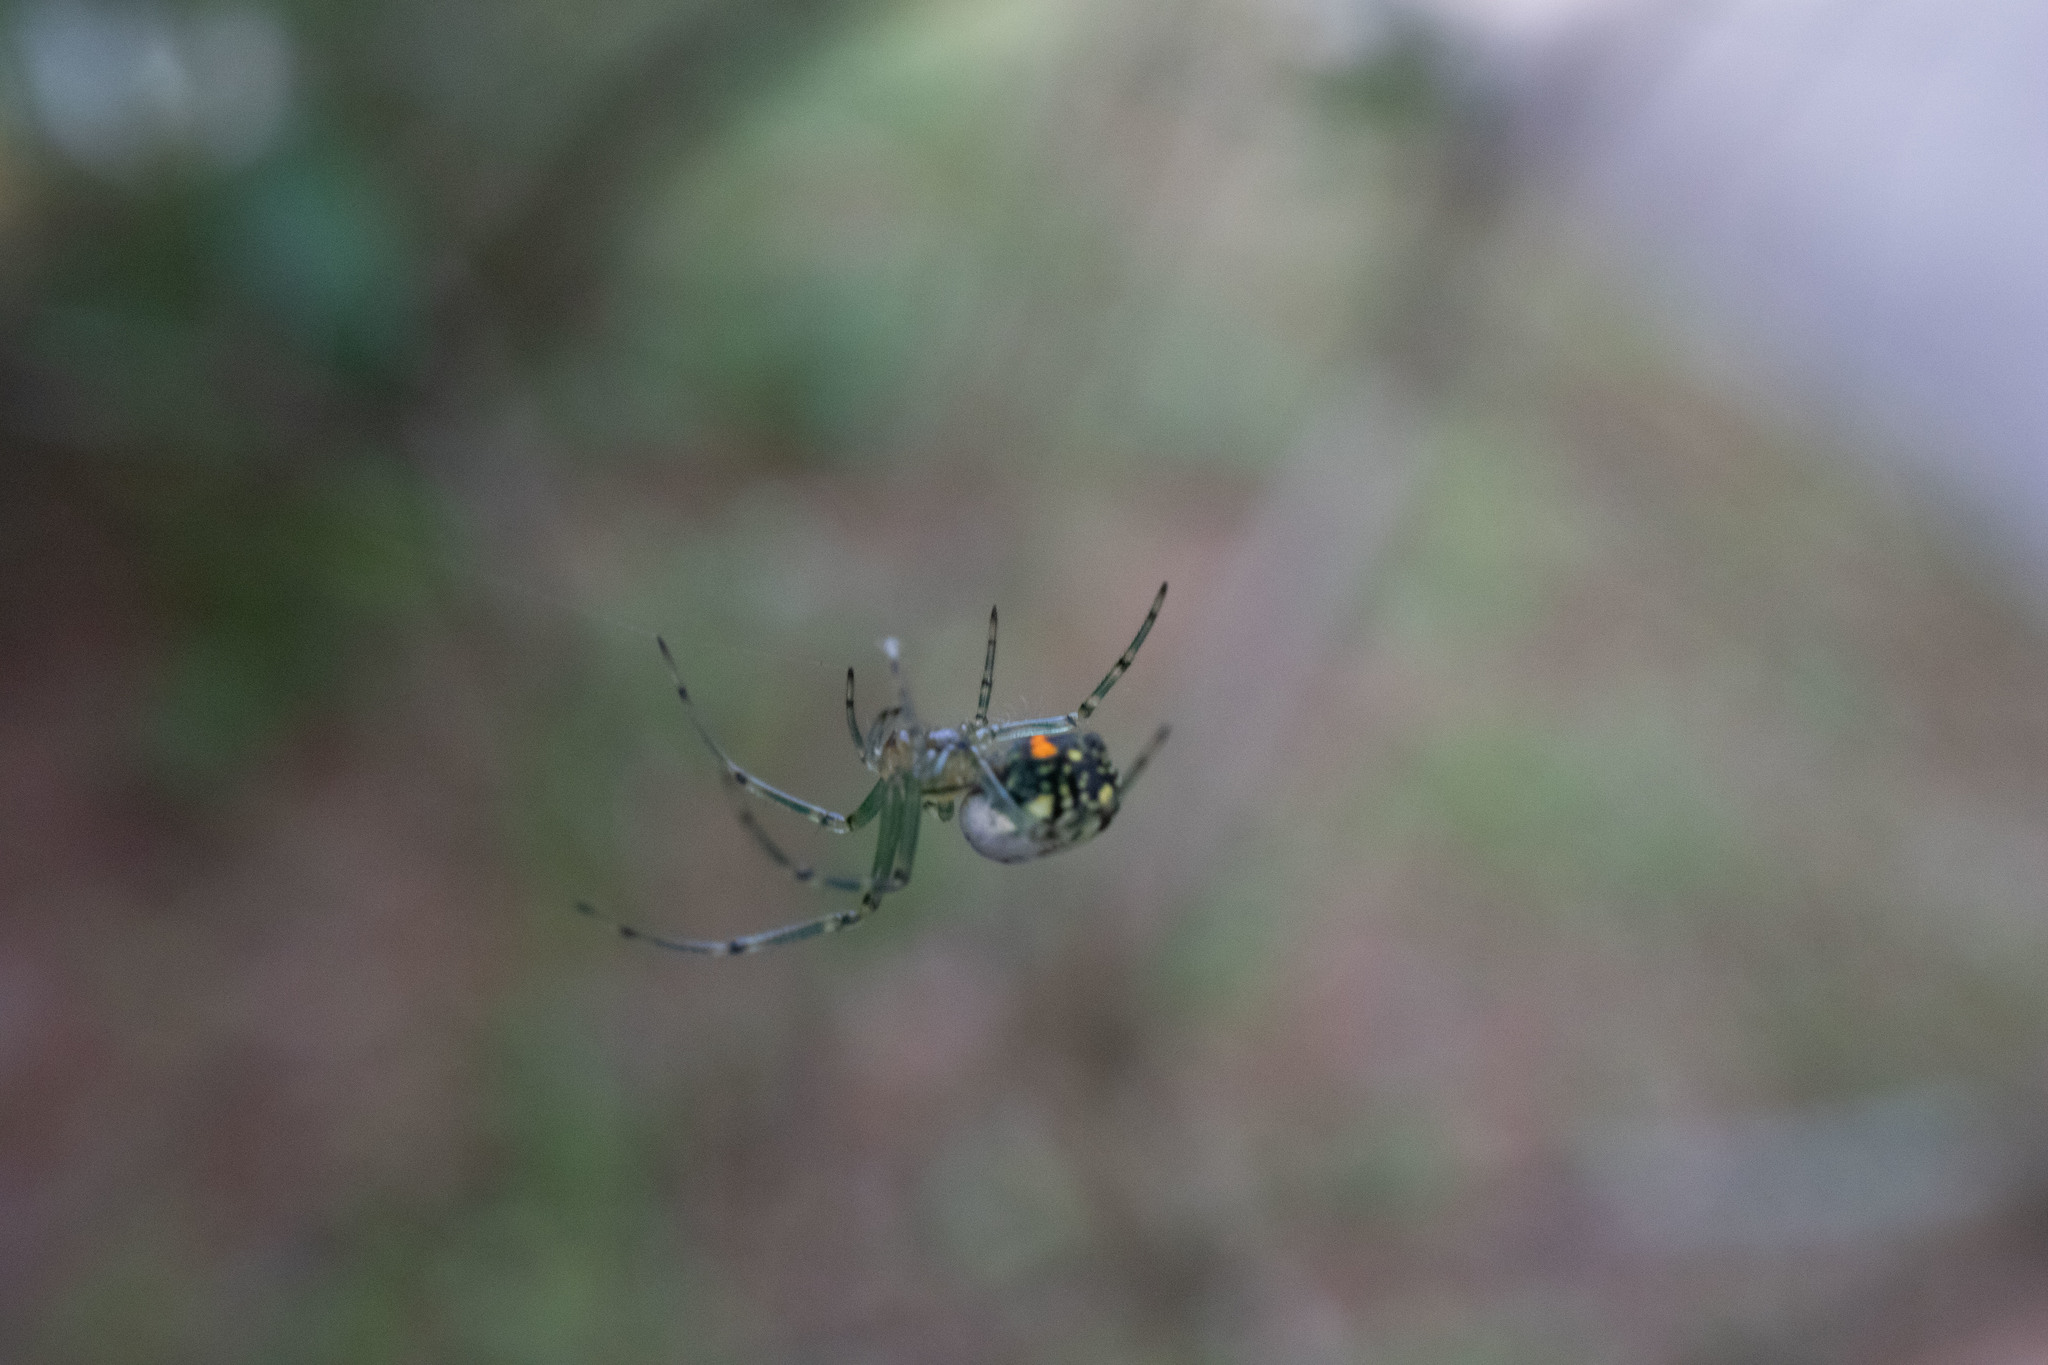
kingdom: Animalia
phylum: Arthropoda
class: Arachnida
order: Araneae
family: Tetragnathidae
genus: Leucauge
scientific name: Leucauge venusta
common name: Longjawed orb weavers
